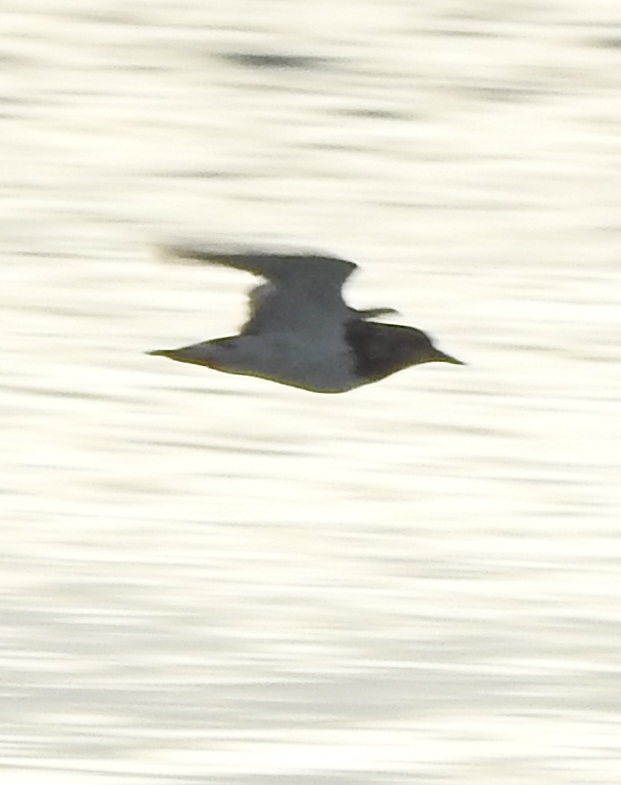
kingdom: Animalia
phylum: Chordata
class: Aves
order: Charadriiformes
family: Scolopacidae
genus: Arenaria
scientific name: Arenaria interpres
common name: Ruddy turnstone
